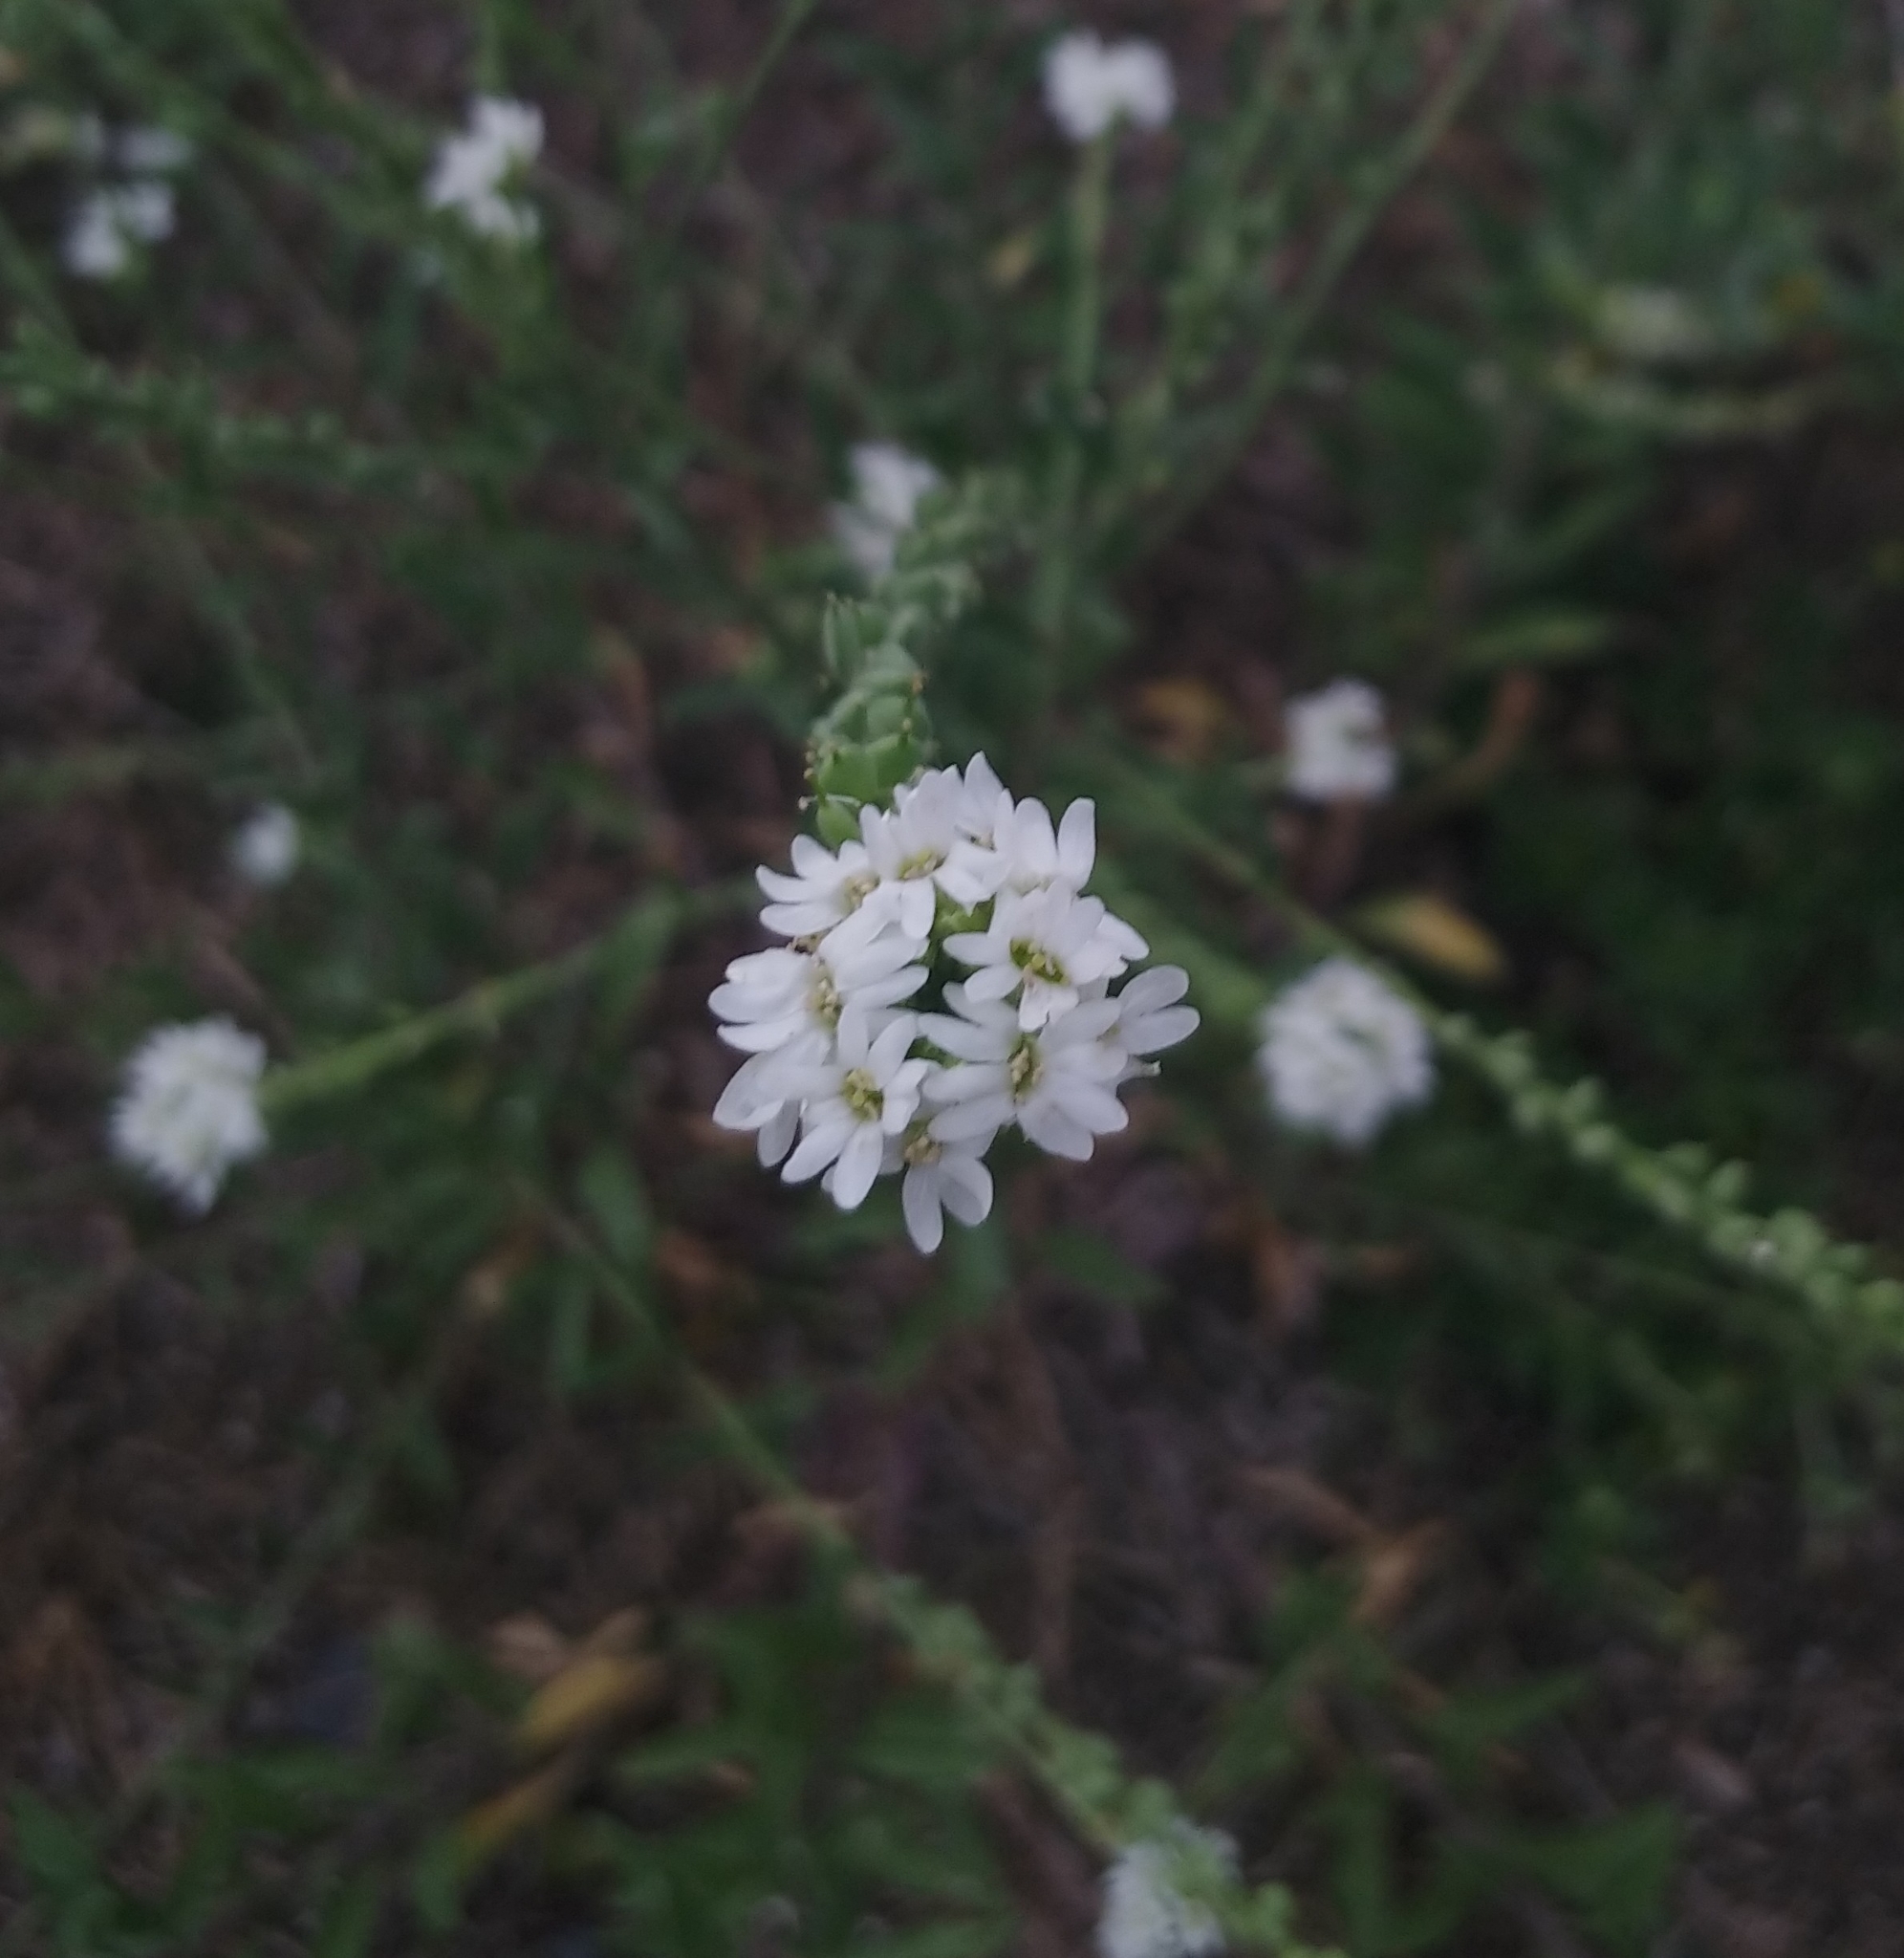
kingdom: Plantae
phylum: Tracheophyta
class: Magnoliopsida
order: Brassicales
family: Brassicaceae
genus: Berteroa
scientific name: Berteroa incana
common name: Hoary alison
